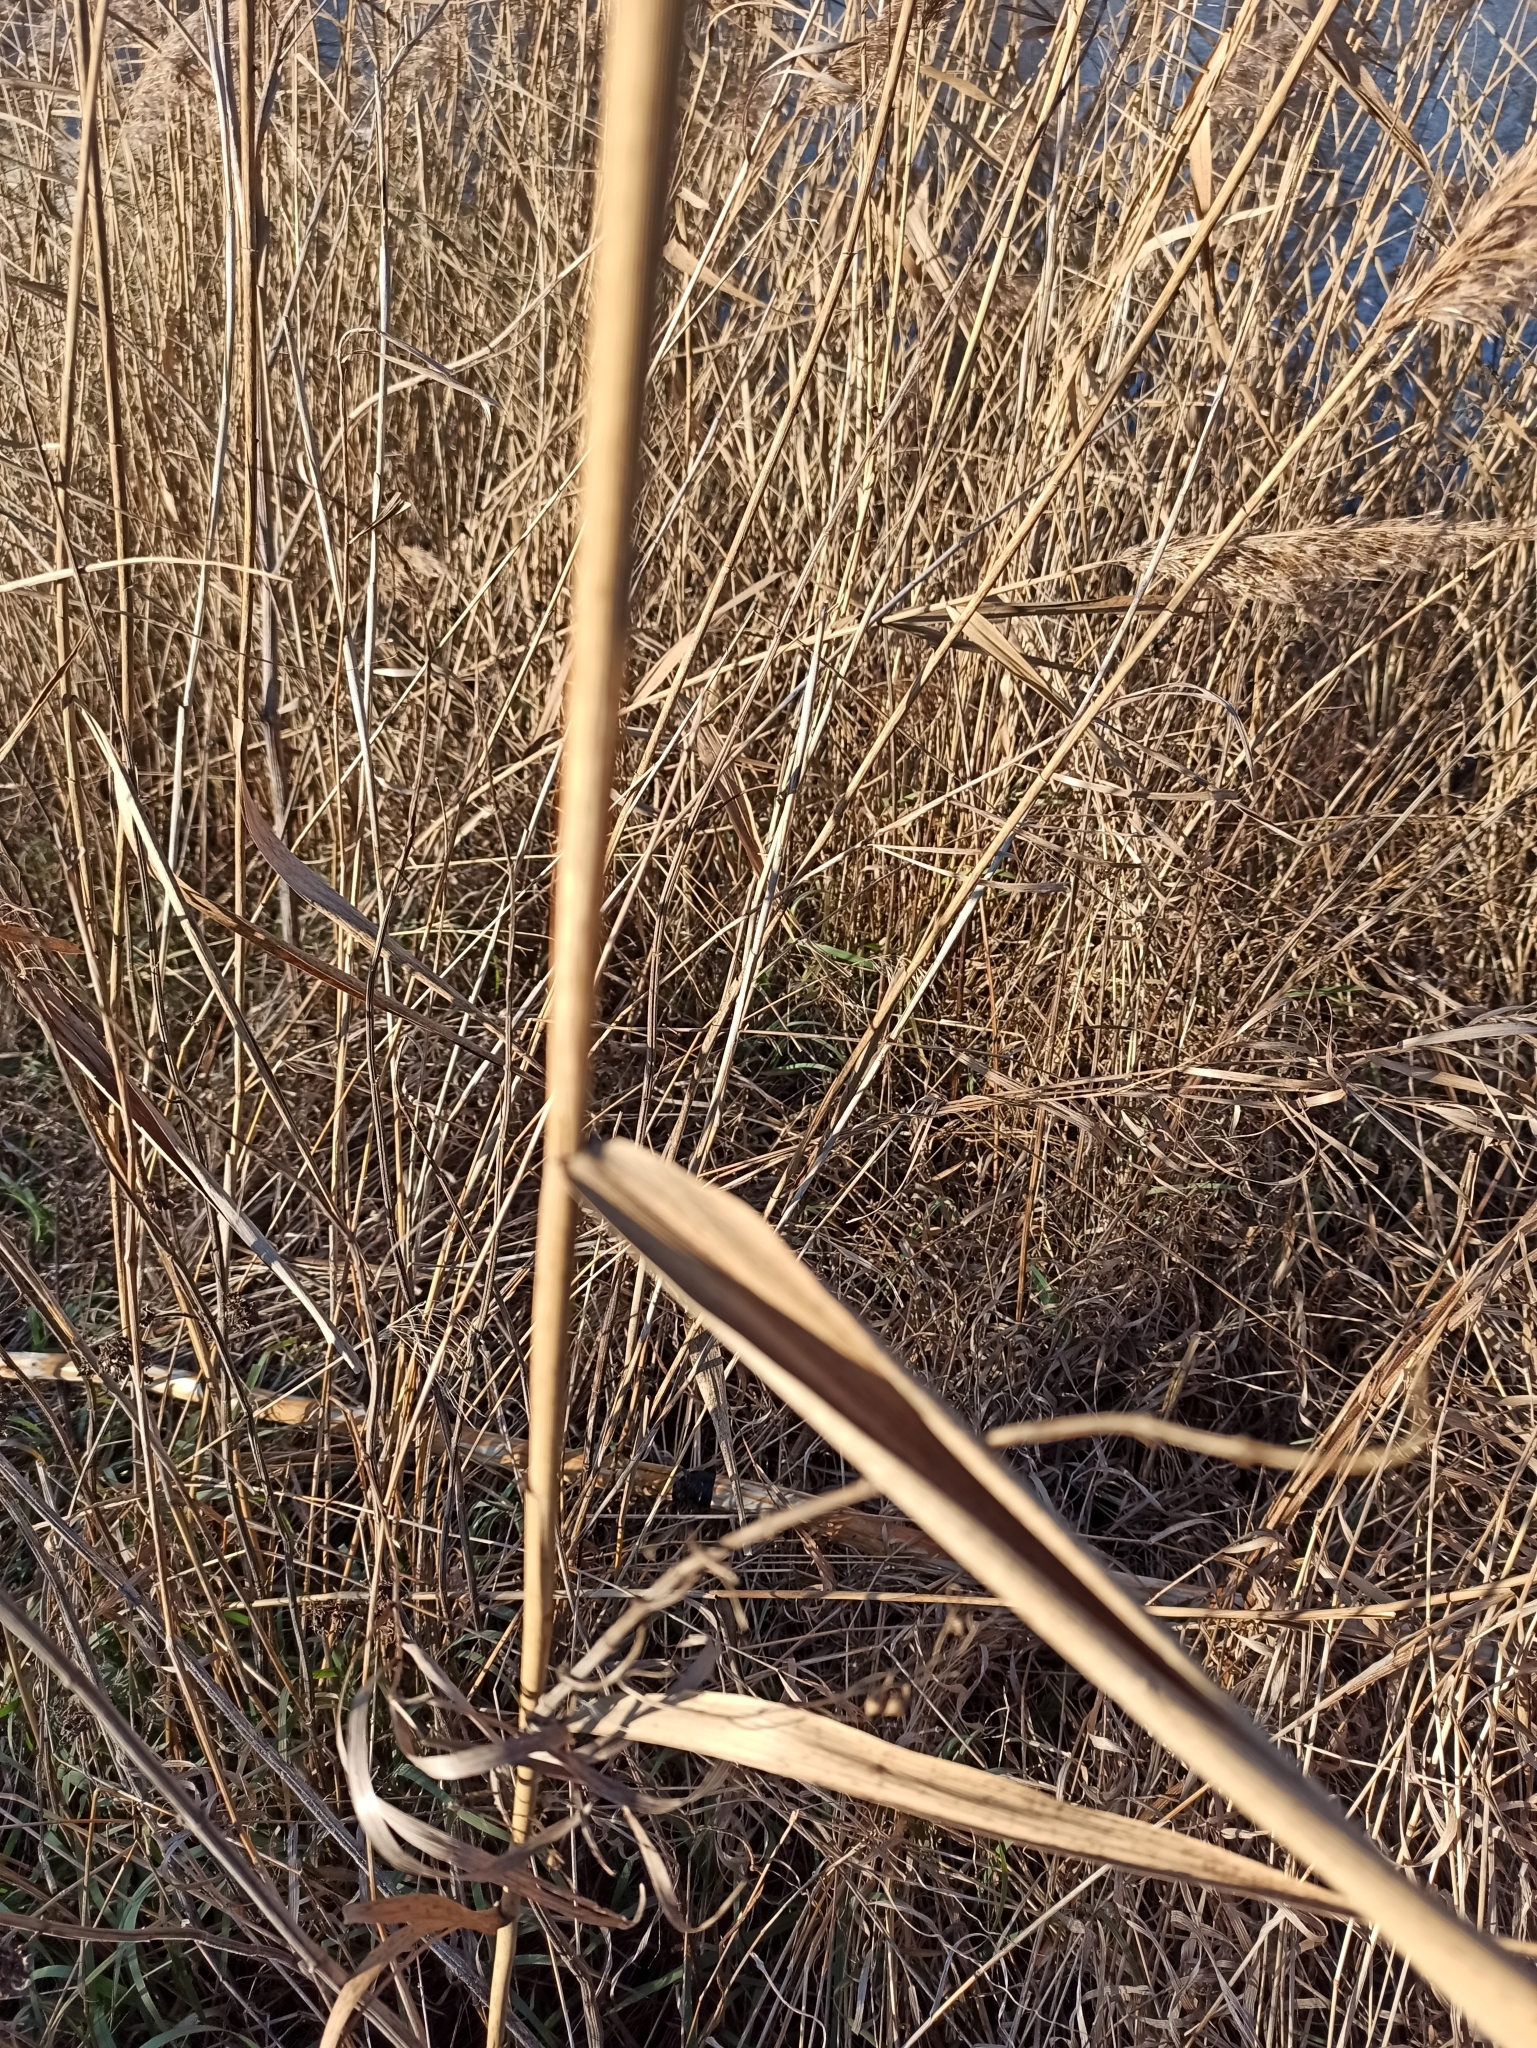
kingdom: Plantae
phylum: Tracheophyta
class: Liliopsida
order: Poales
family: Poaceae
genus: Phragmites
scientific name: Phragmites australis
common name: Common reed
